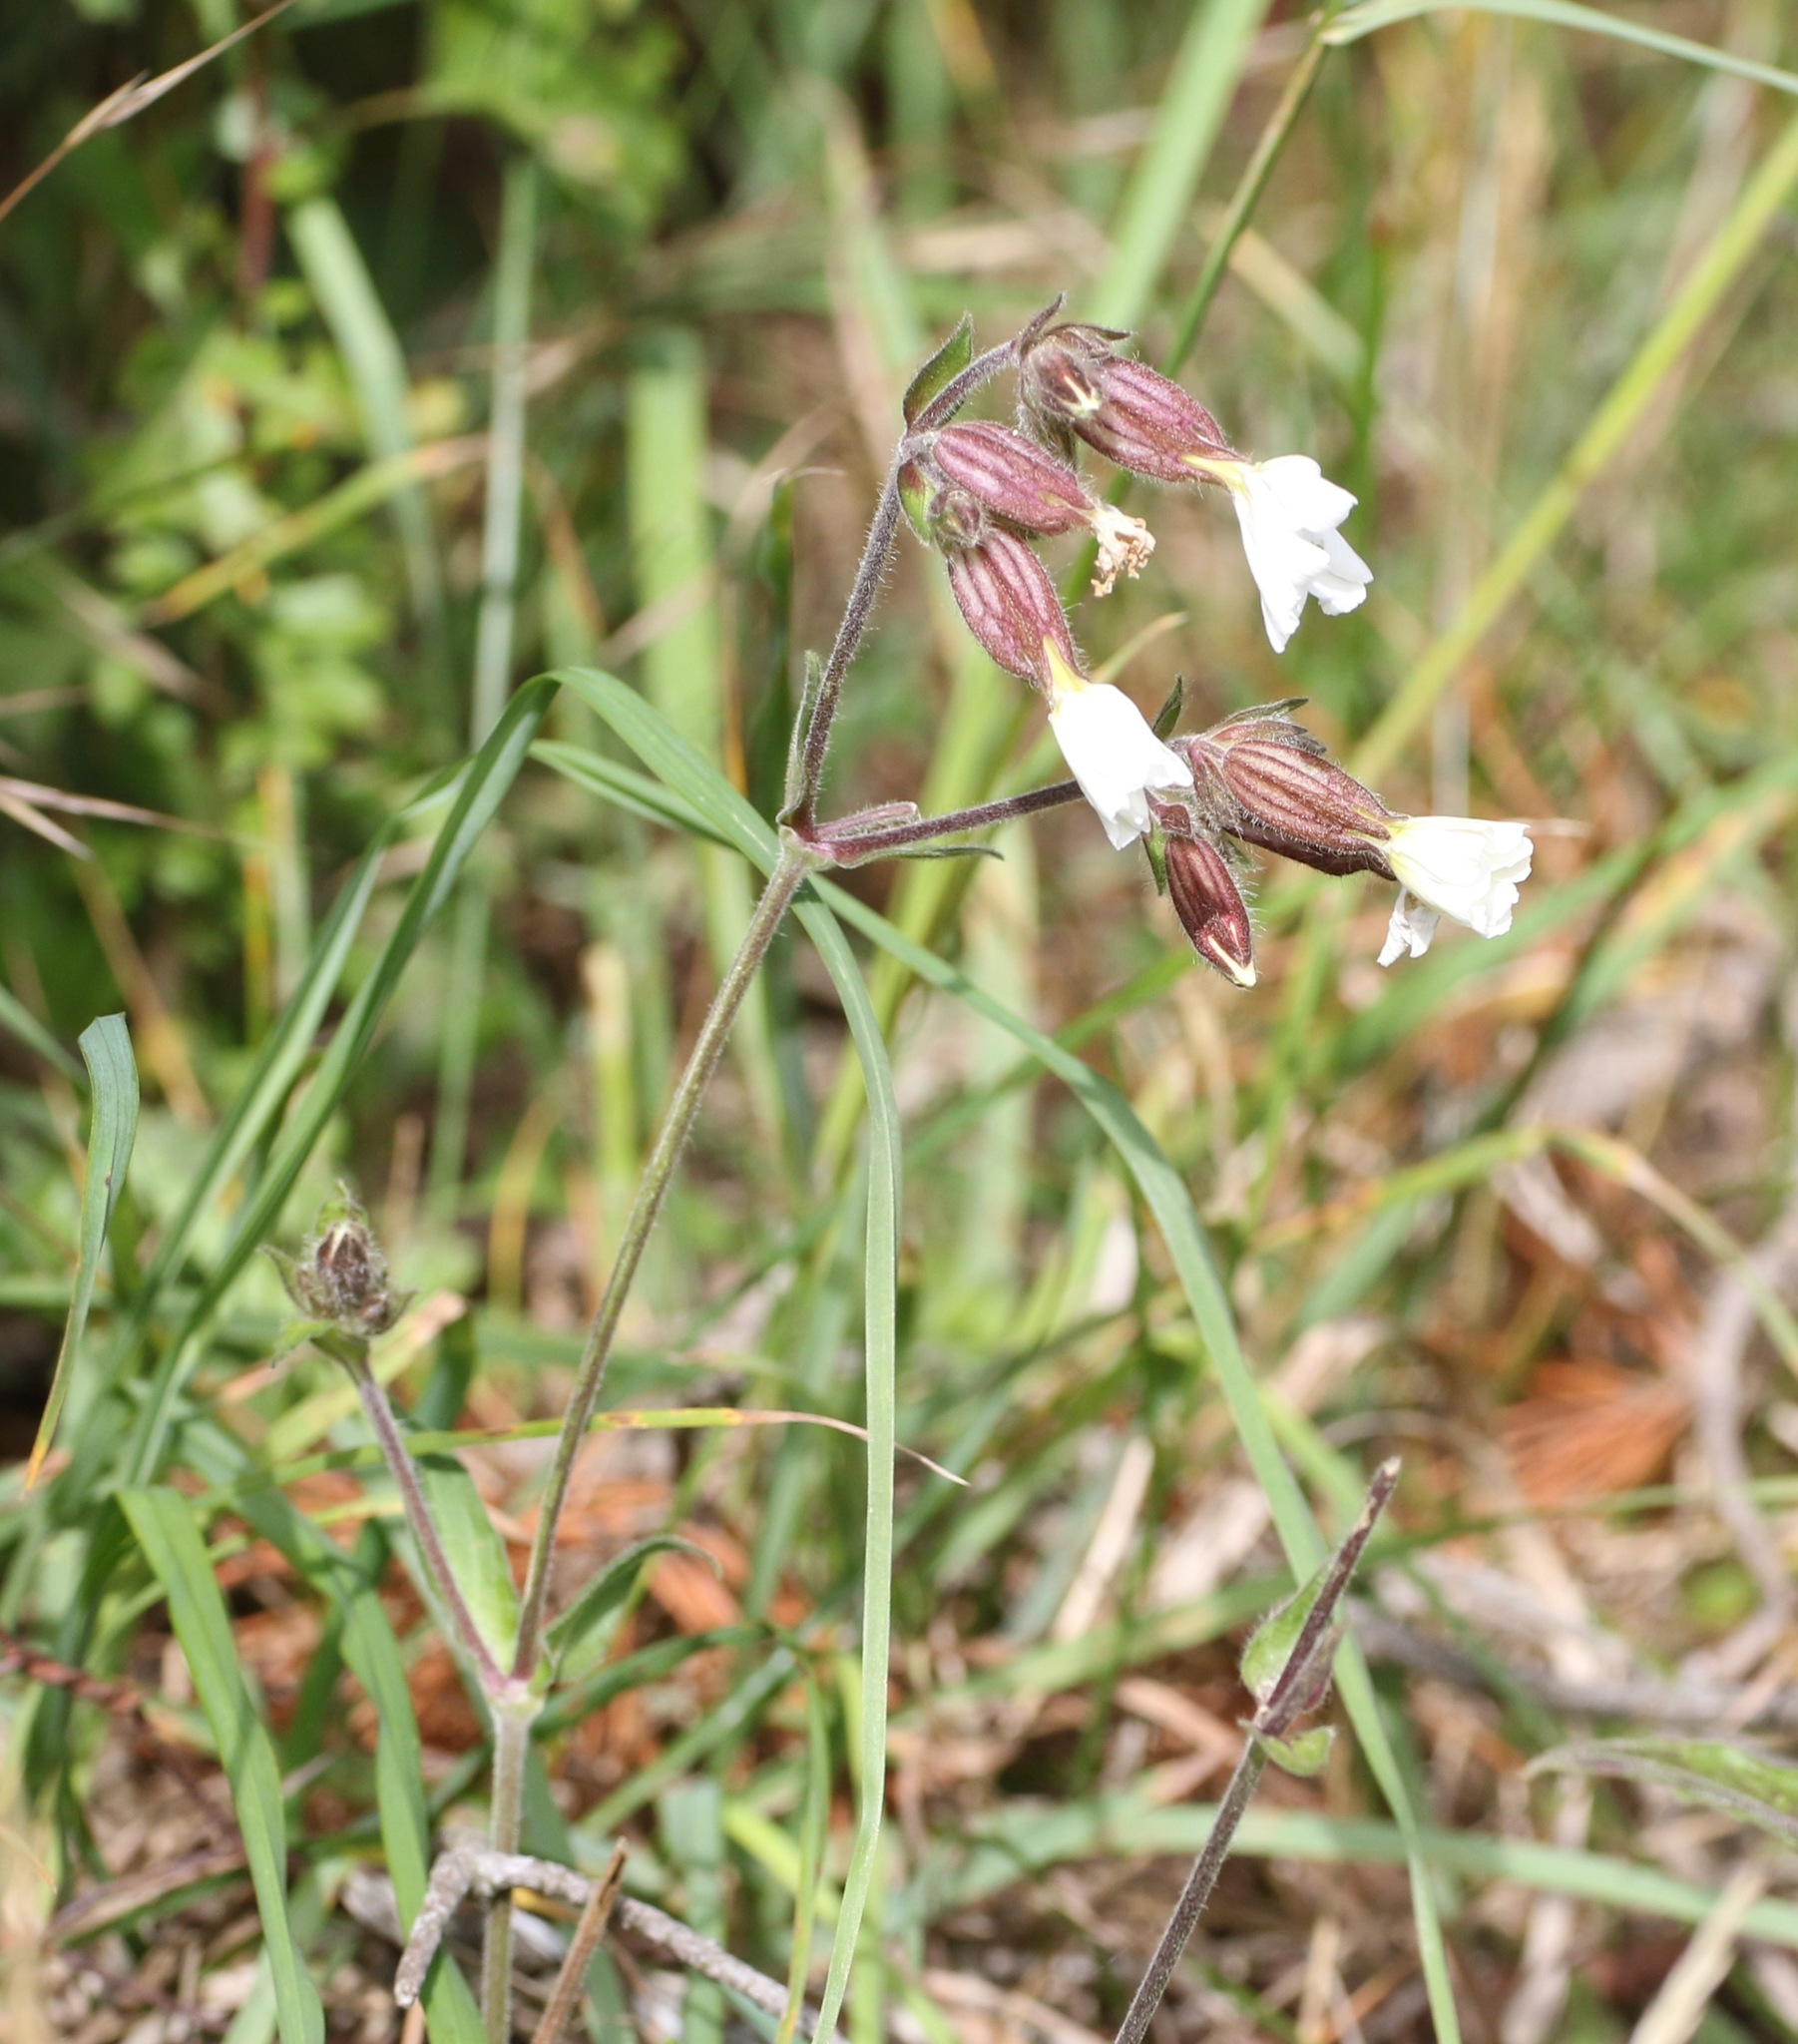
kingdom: Plantae
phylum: Tracheophyta
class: Magnoliopsida
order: Caryophyllales
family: Caryophyllaceae
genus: Silene
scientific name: Silene latifolia
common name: White campion
